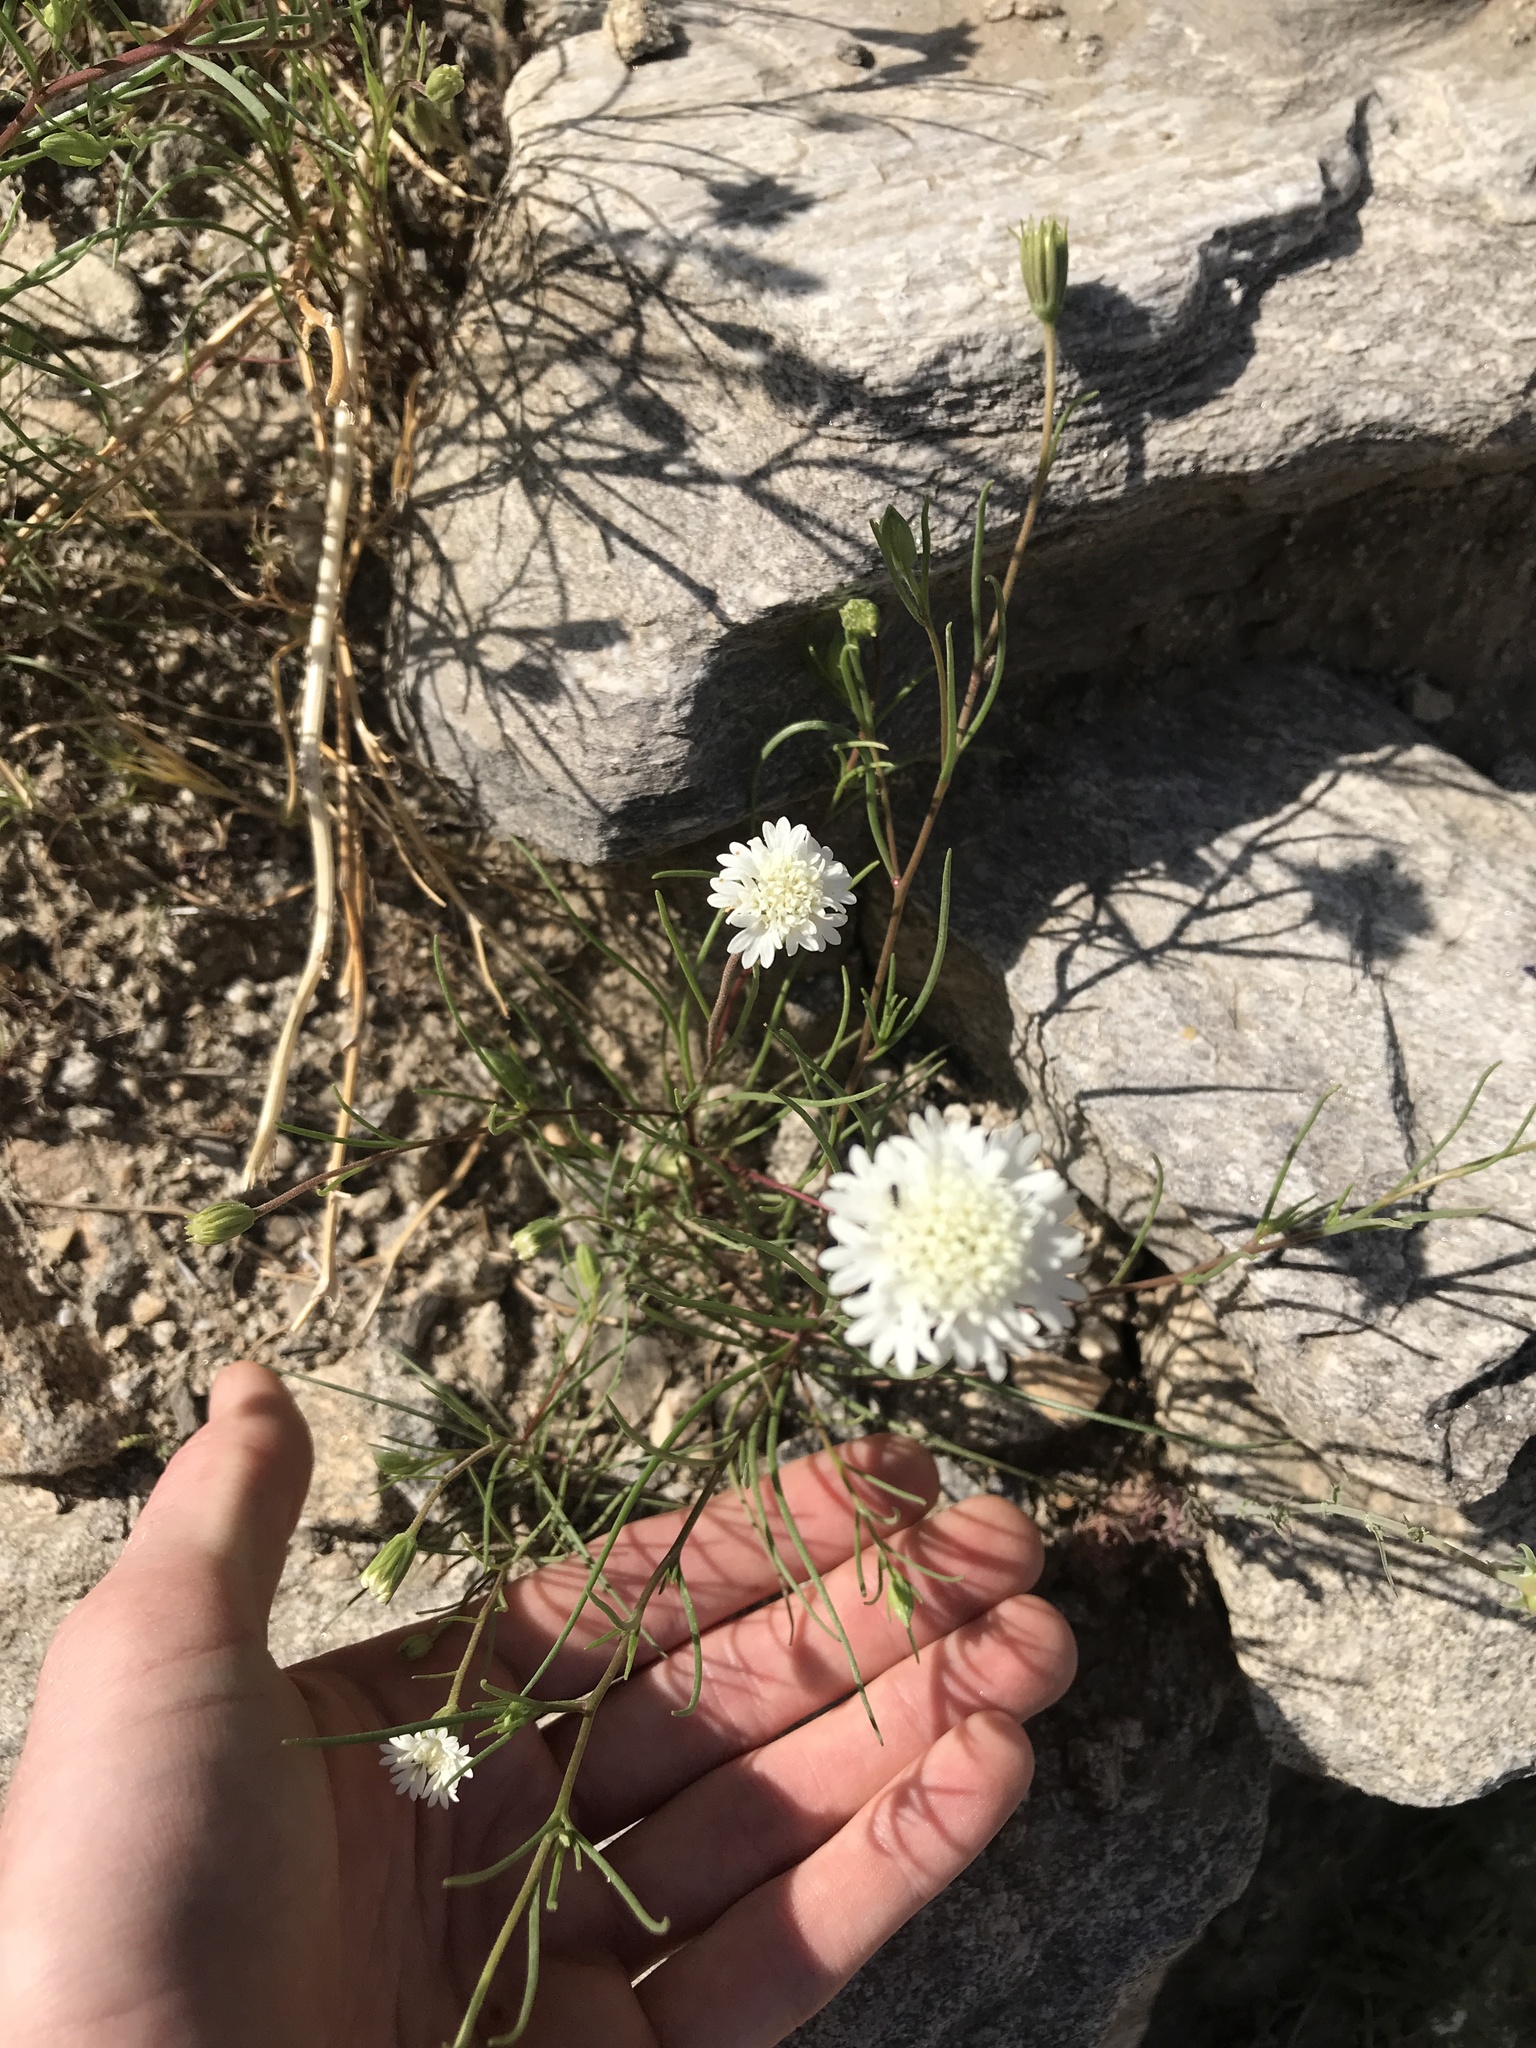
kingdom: Plantae
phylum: Tracheophyta
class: Magnoliopsida
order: Asterales
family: Asteraceae
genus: Chaenactis
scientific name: Chaenactis fremontii
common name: Fremont pincushion
